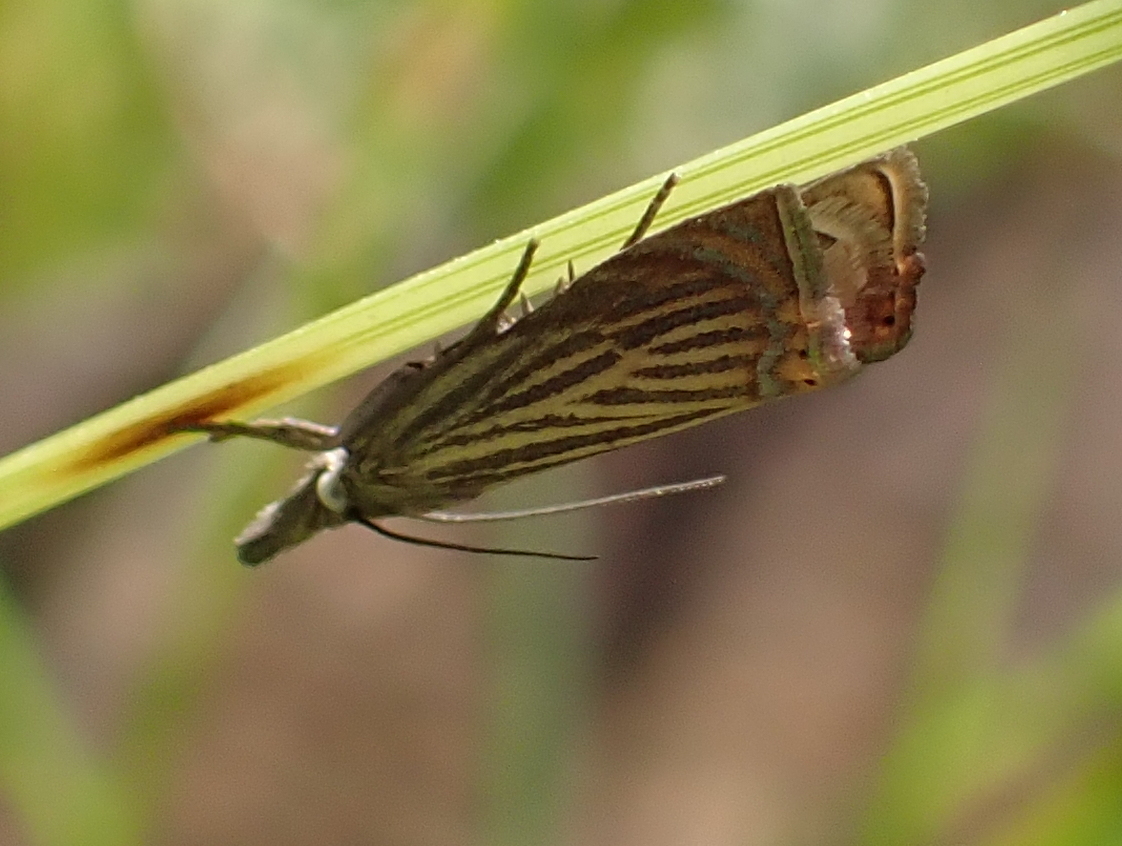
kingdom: Animalia
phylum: Arthropoda
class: Insecta
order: Lepidoptera
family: Crambidae
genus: Chrysoteuchia
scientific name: Chrysoteuchia culmella
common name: Garden grass-veneer
